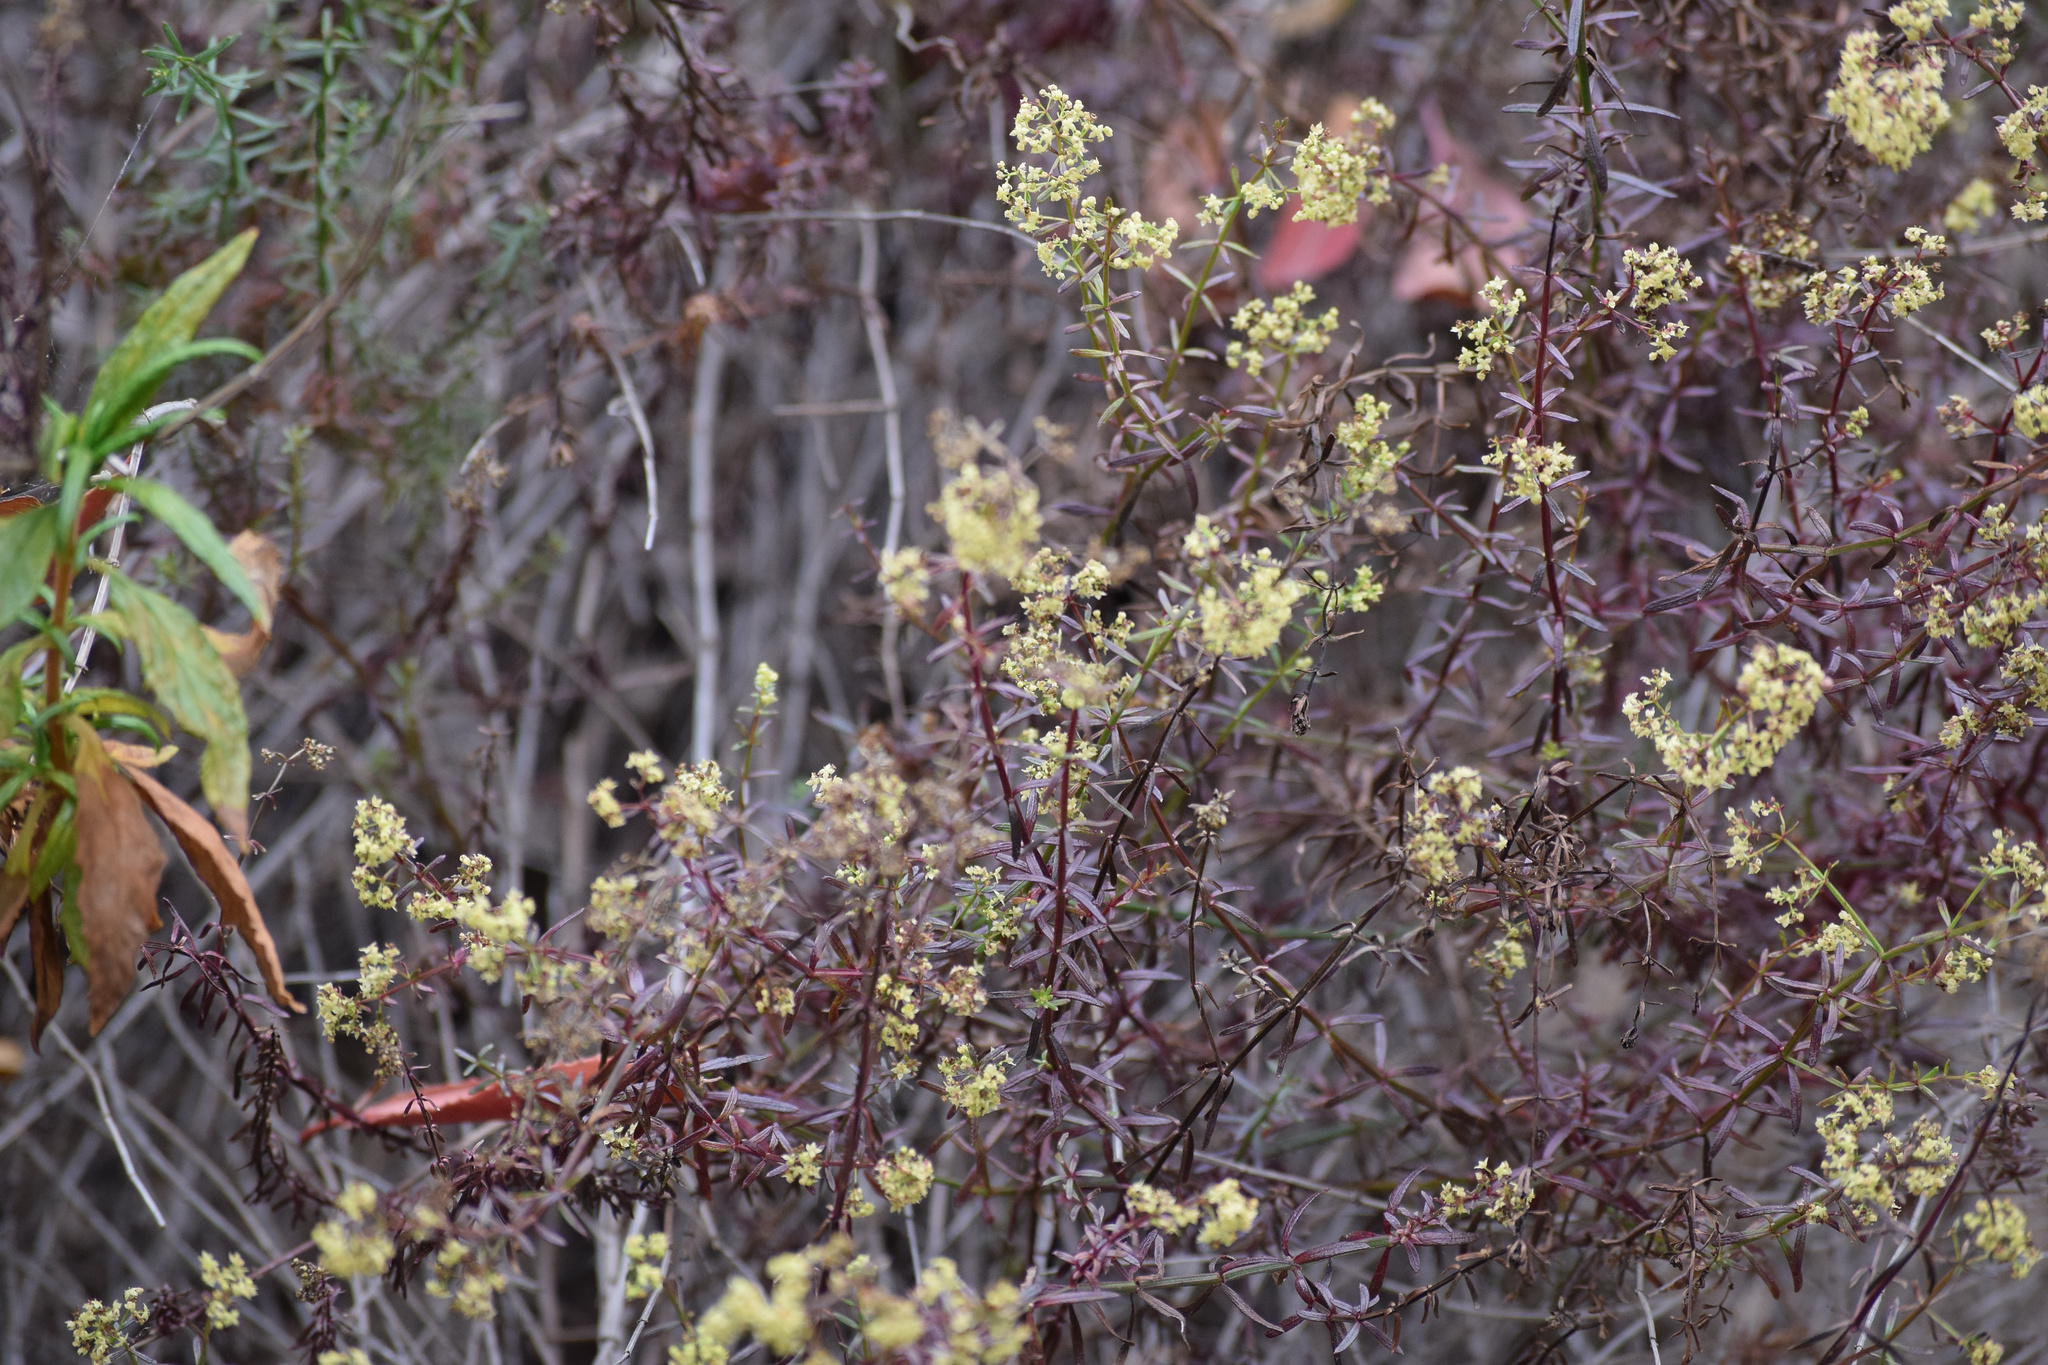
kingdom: Plantae
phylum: Tracheophyta
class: Magnoliopsida
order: Gentianales
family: Rubiaceae
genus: Galium
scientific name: Galium angustifolium
